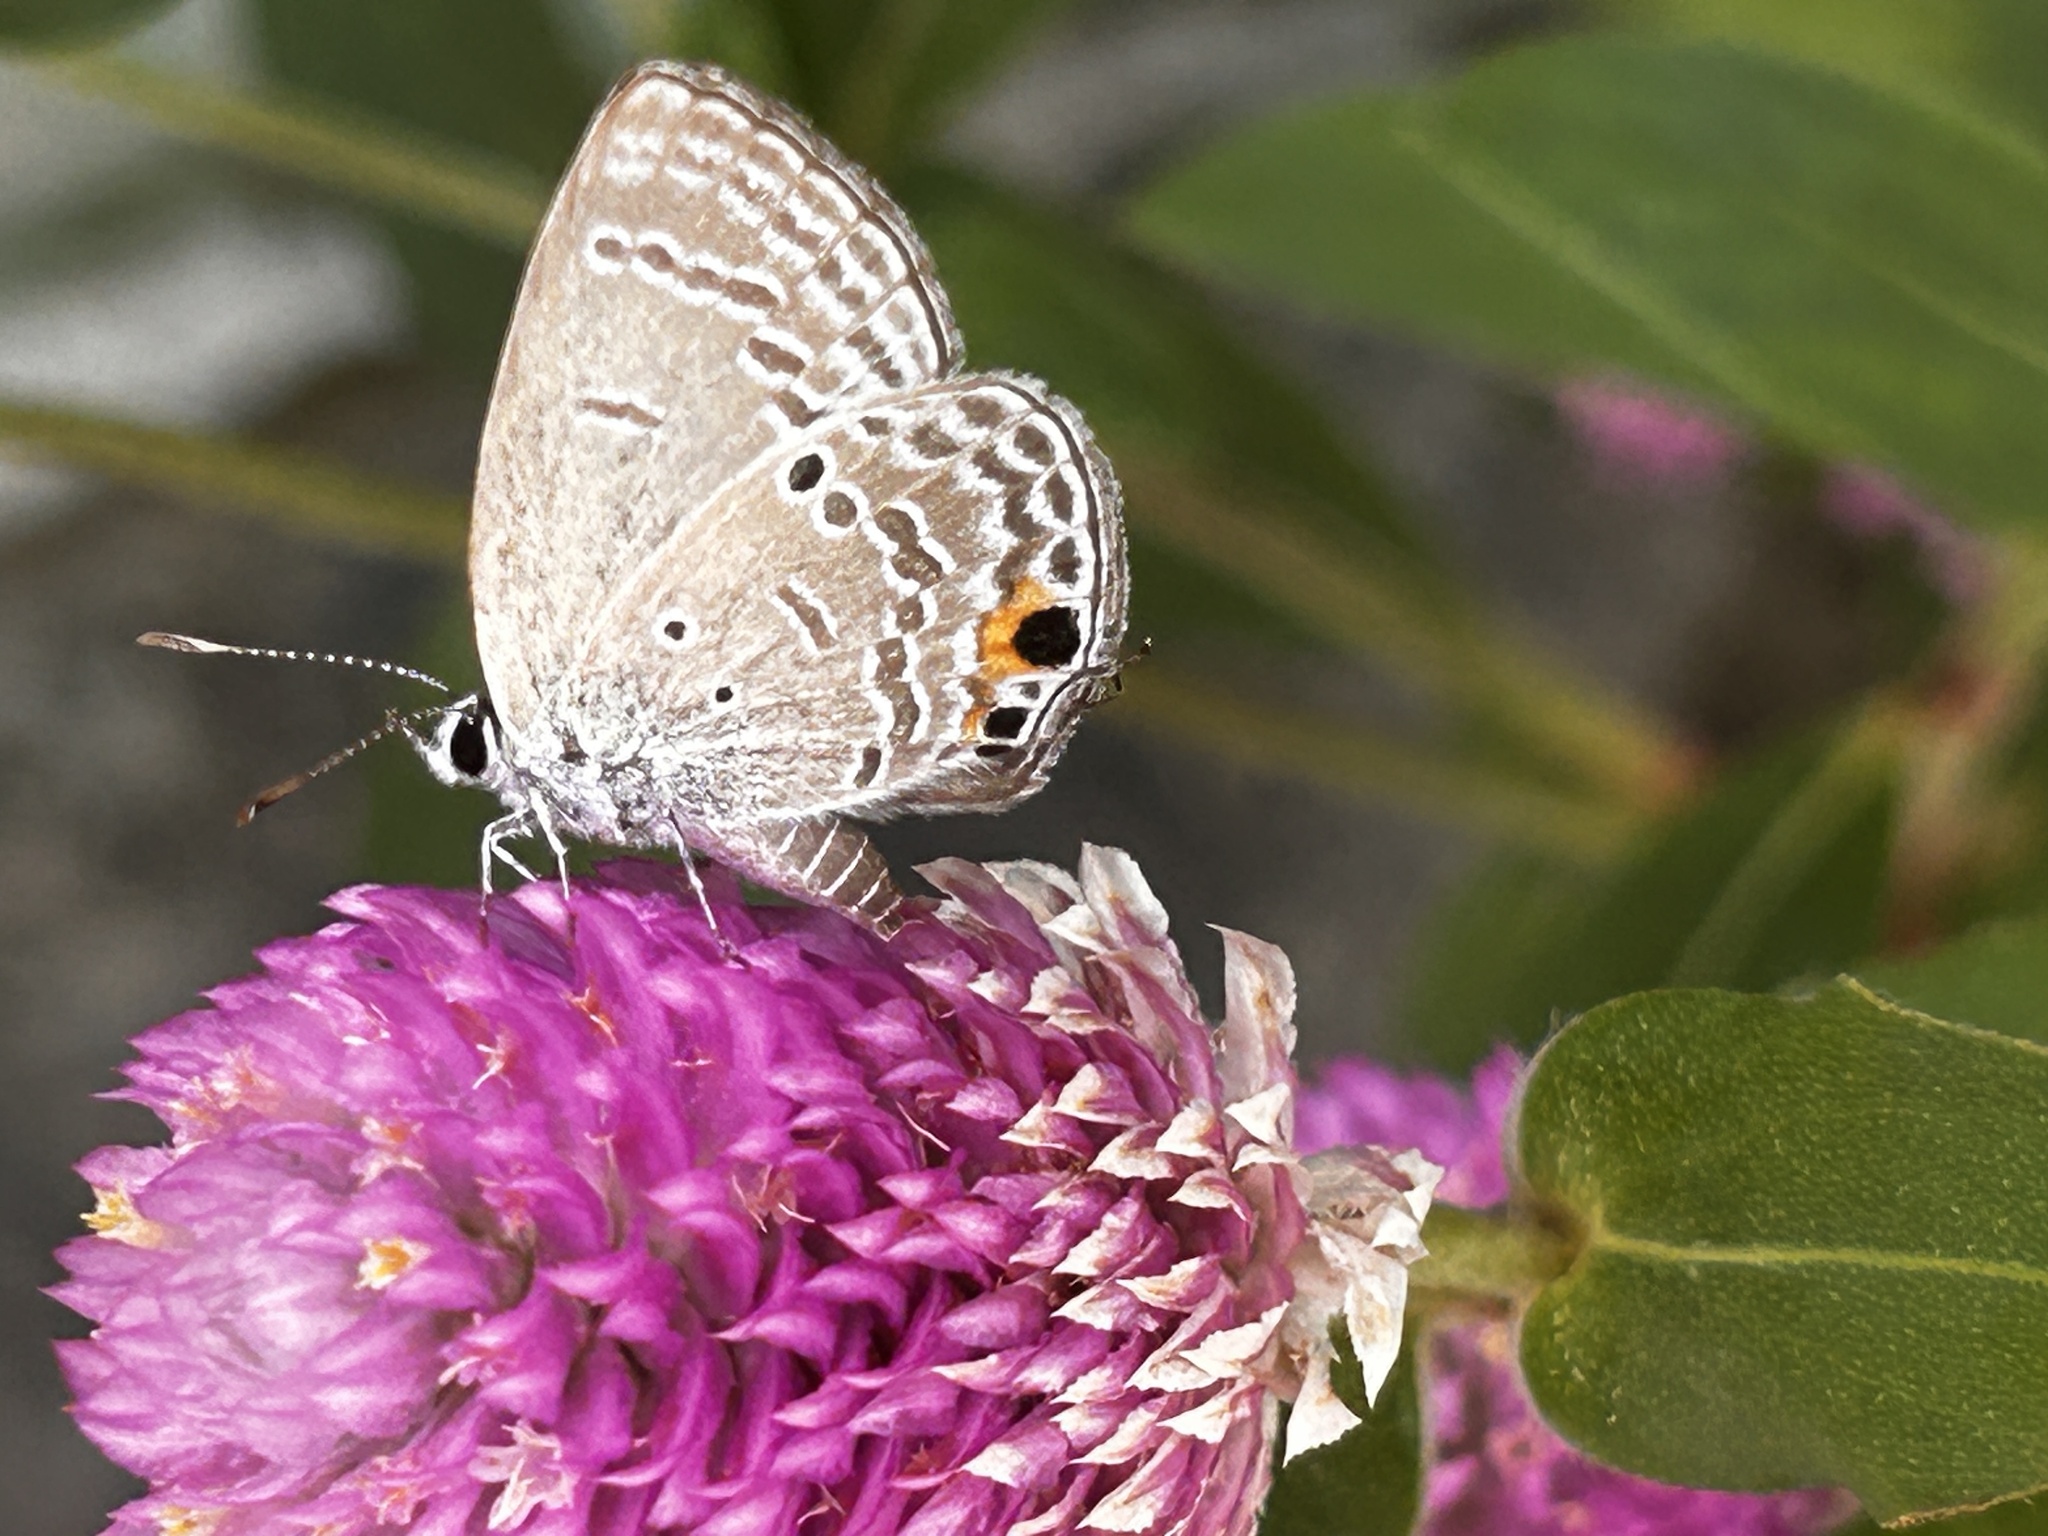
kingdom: Animalia
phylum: Arthropoda
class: Insecta
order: Lepidoptera
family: Lycaenidae
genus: Luthrodes
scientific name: Luthrodes pandava
